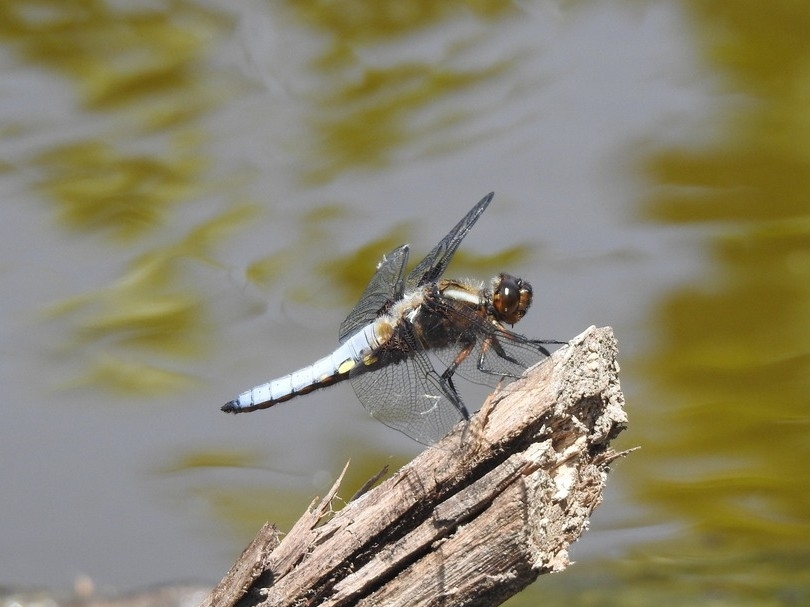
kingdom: Animalia
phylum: Arthropoda
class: Insecta
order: Odonata
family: Libellulidae
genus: Libellula
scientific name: Libellula depressa
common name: Broad-bodied chaser
